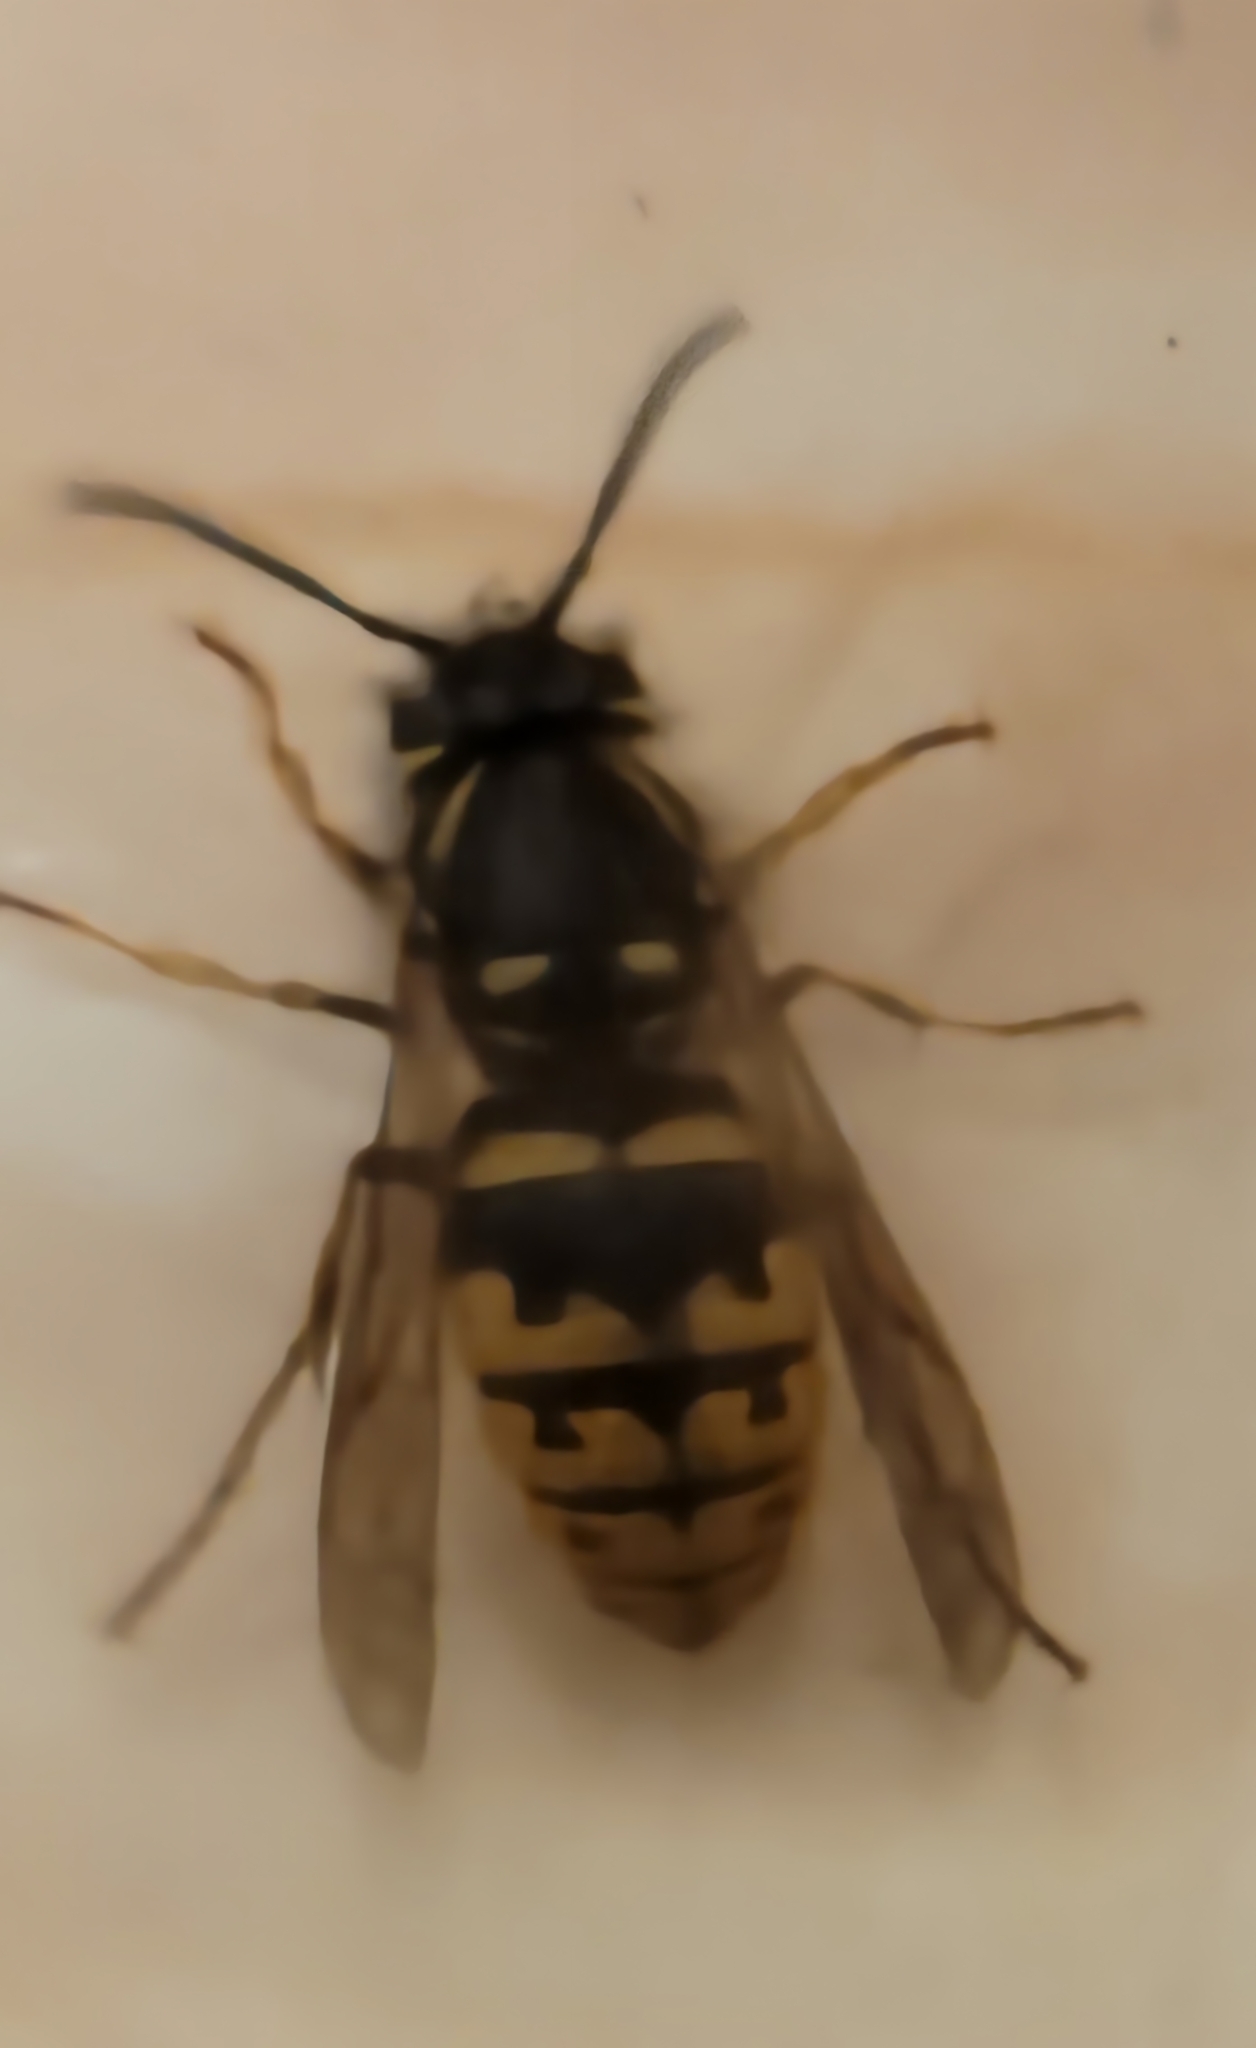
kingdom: Animalia
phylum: Arthropoda
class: Insecta
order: Hymenoptera
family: Vespidae
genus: Vespula
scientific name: Vespula vulgaris
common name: Common wasp
